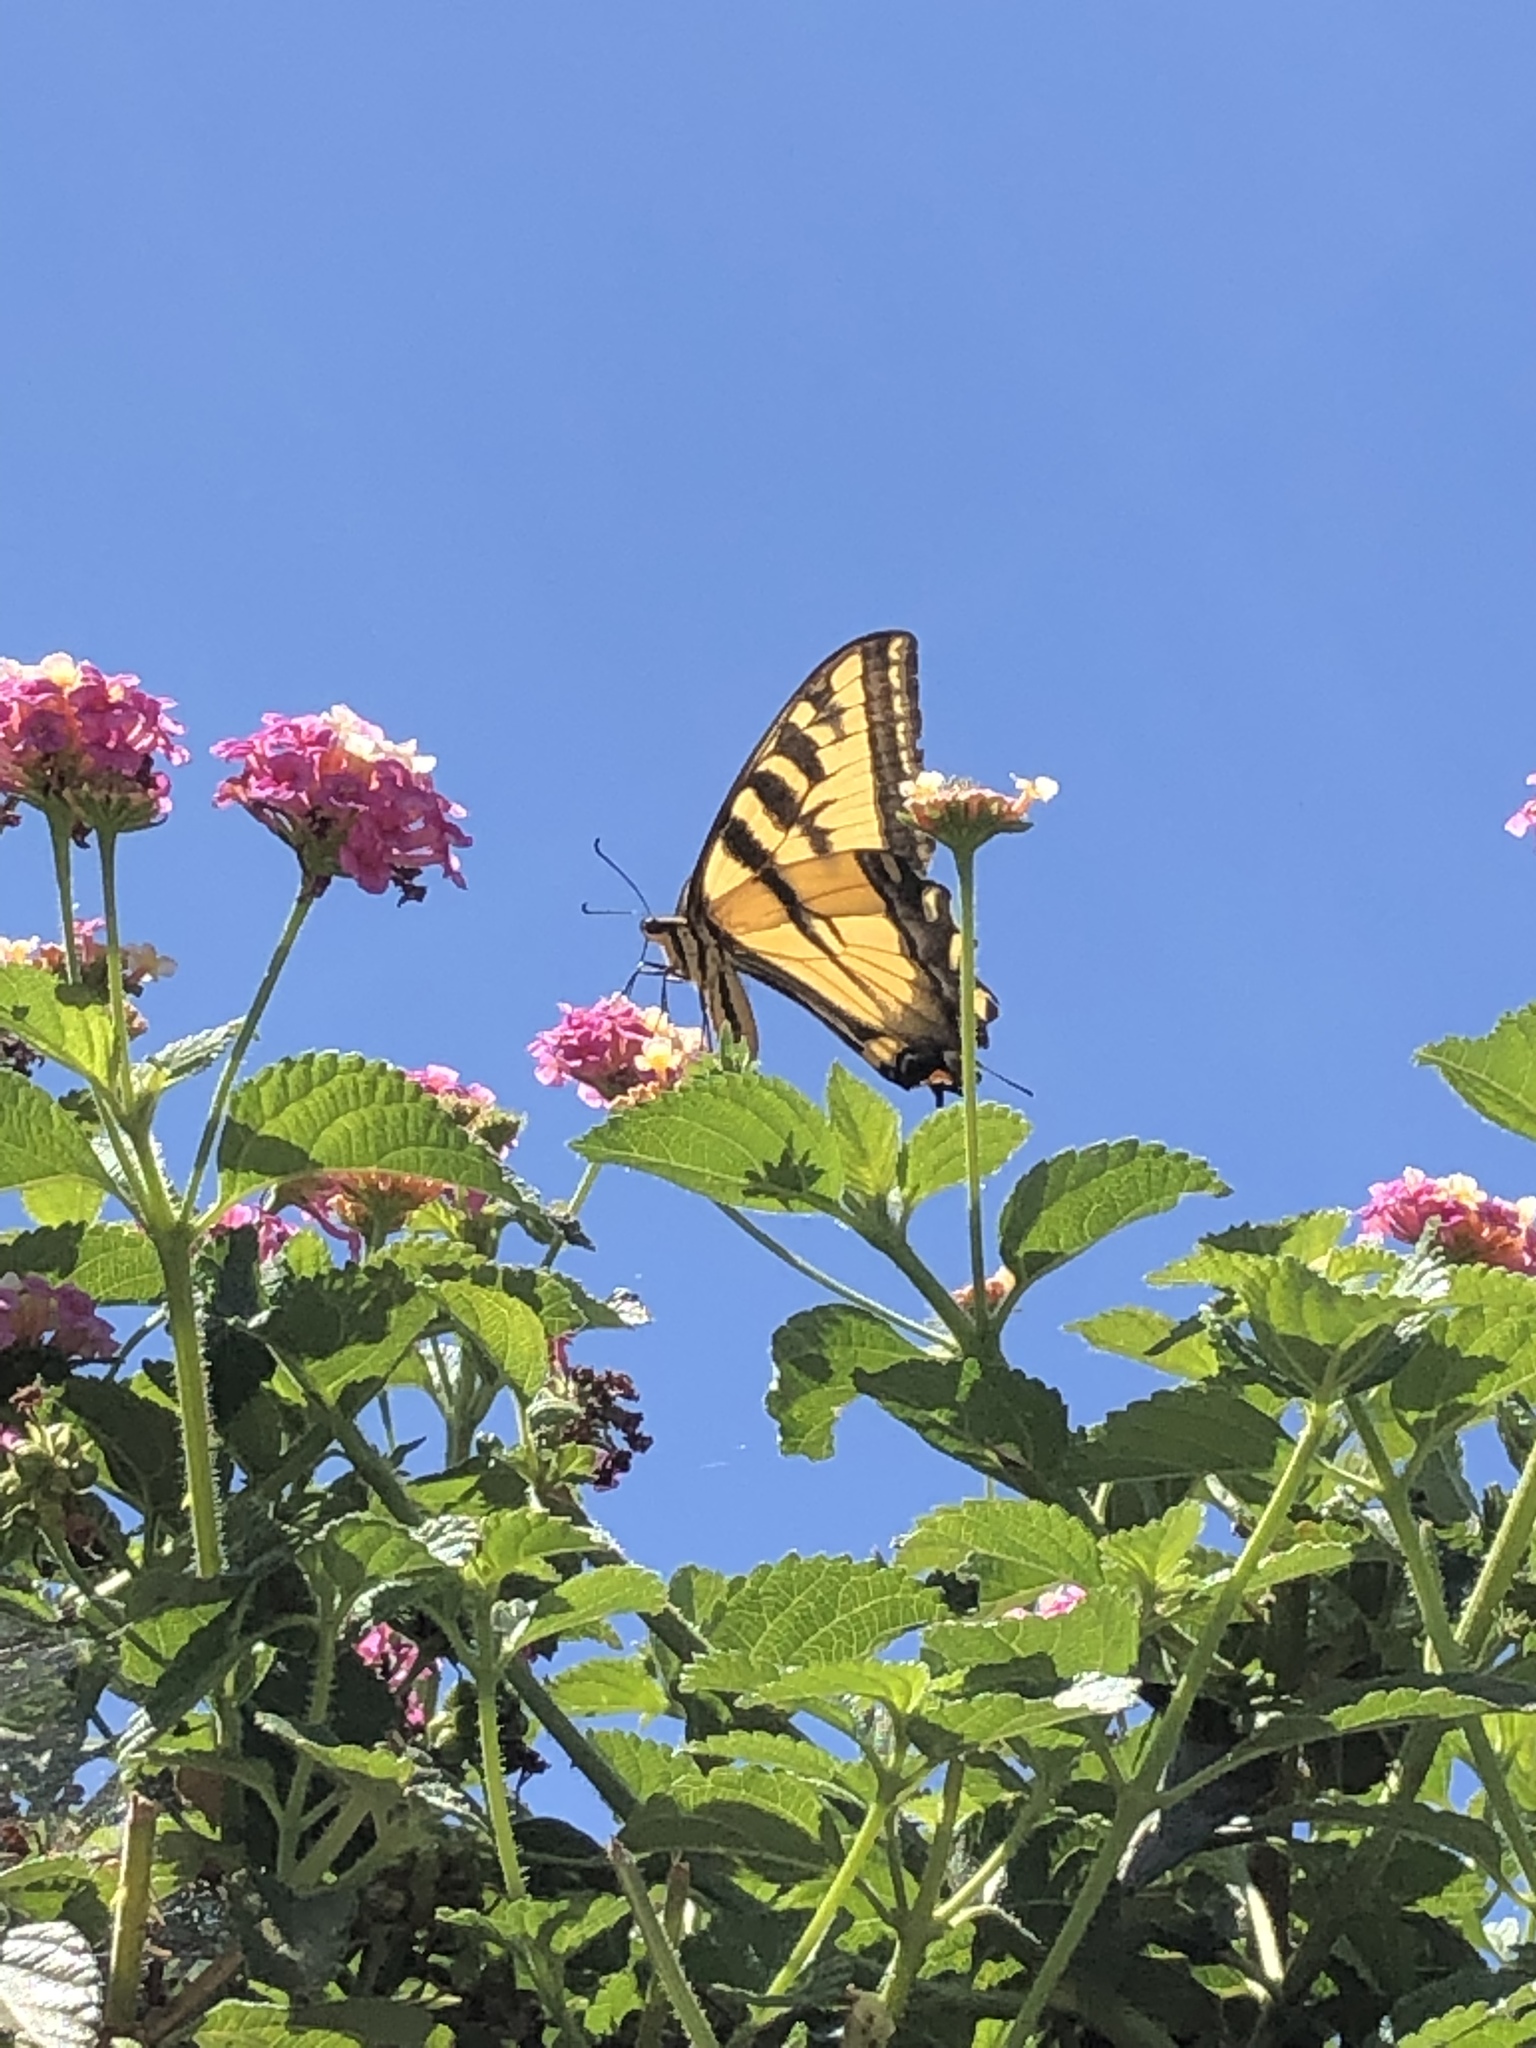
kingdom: Animalia
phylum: Arthropoda
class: Insecta
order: Lepidoptera
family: Papilionidae
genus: Papilio
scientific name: Papilio rutulus
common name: Western tiger swallowtail
